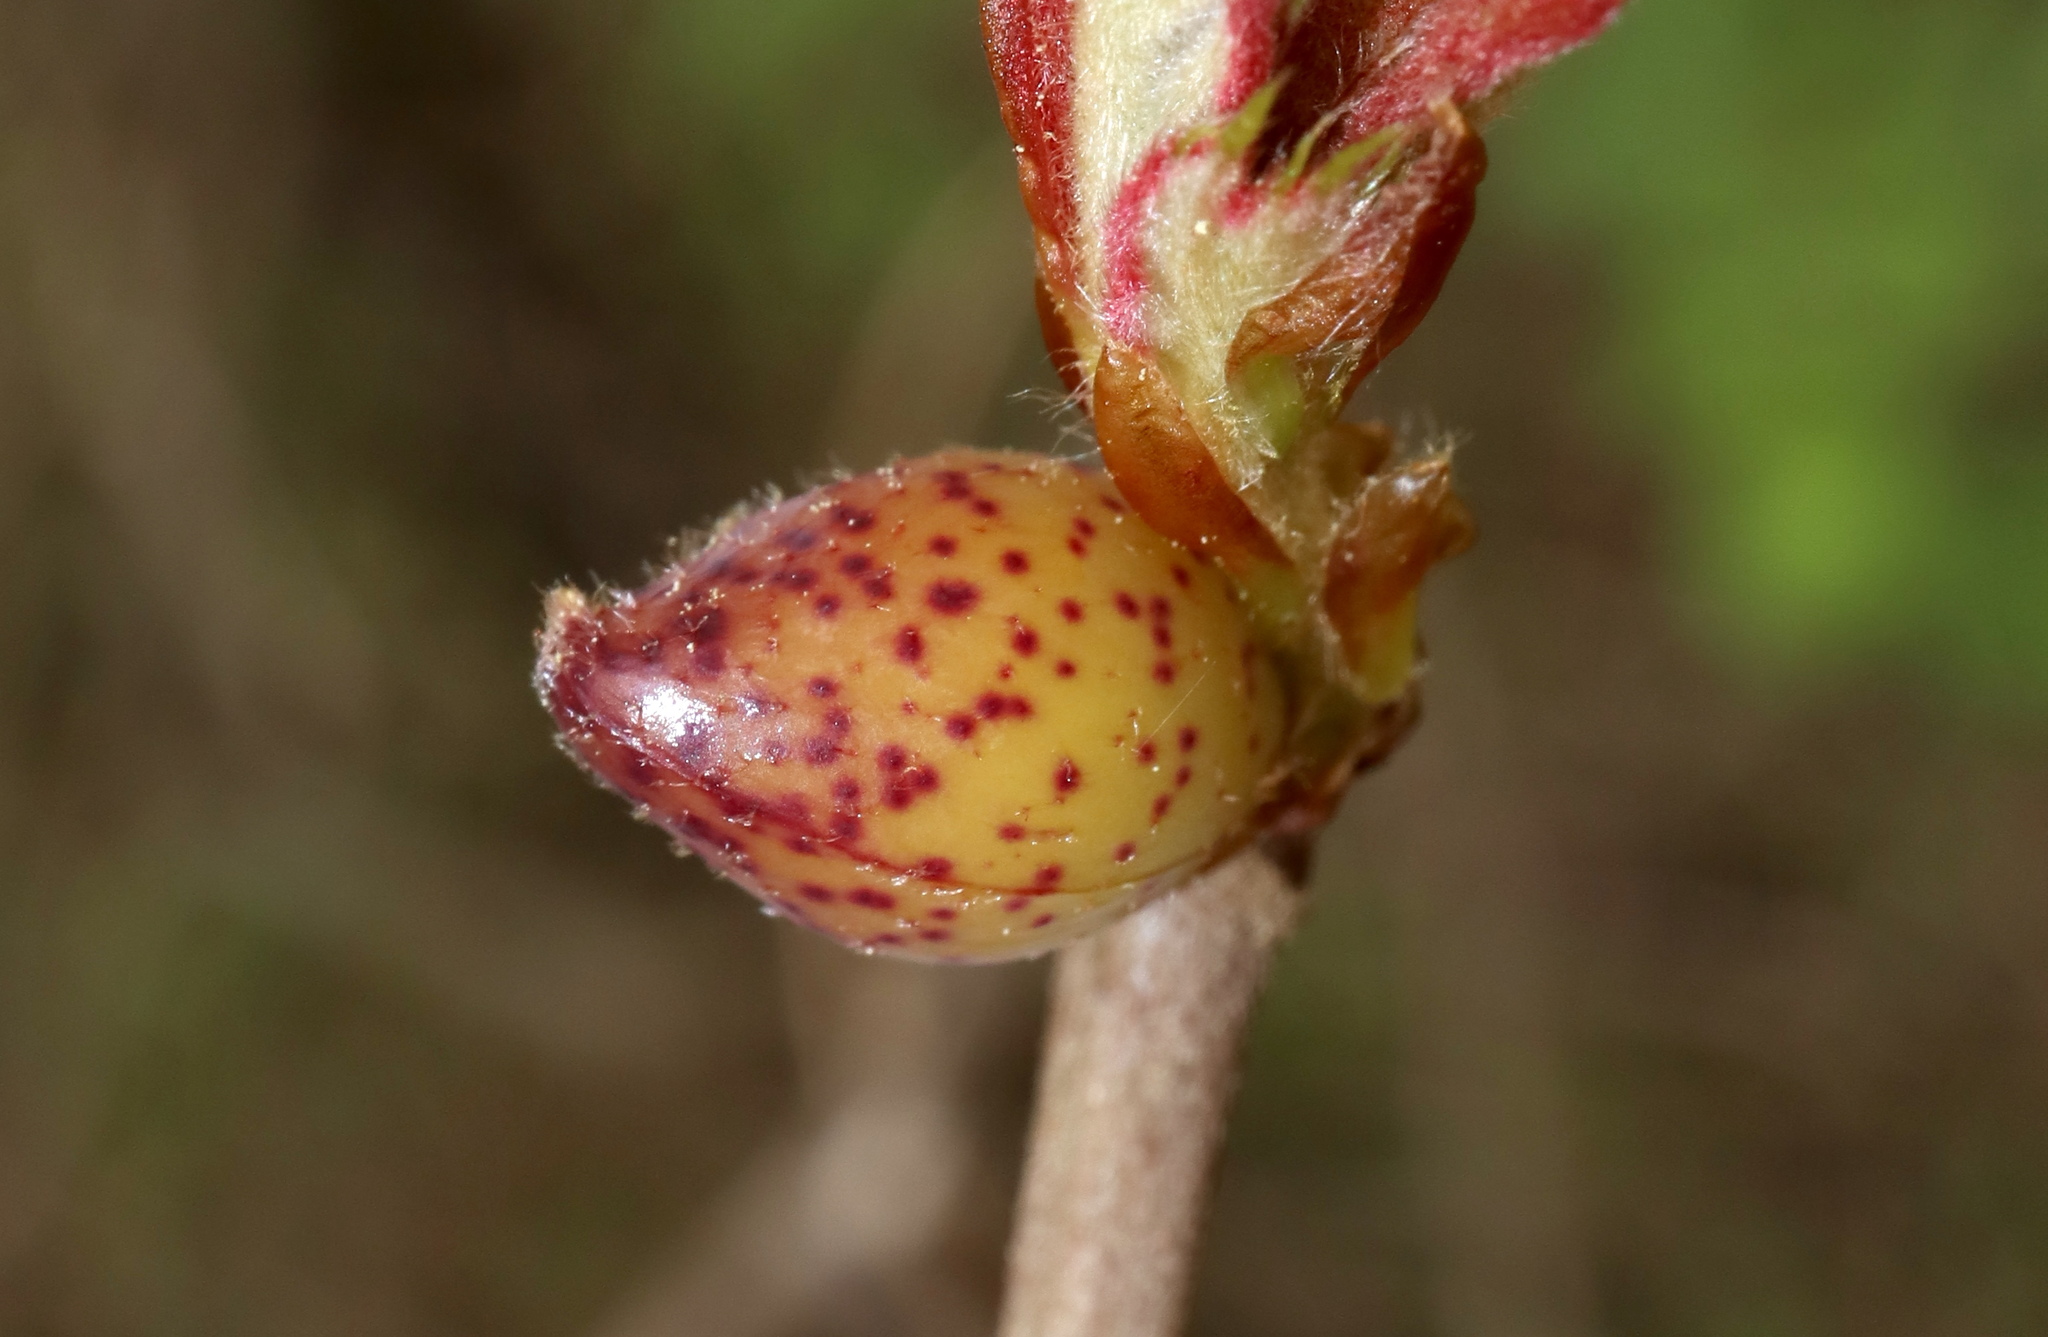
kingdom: Animalia
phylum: Arthropoda
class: Insecta
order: Hymenoptera
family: Cynipidae
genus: Amphibolips
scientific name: Amphibolips
